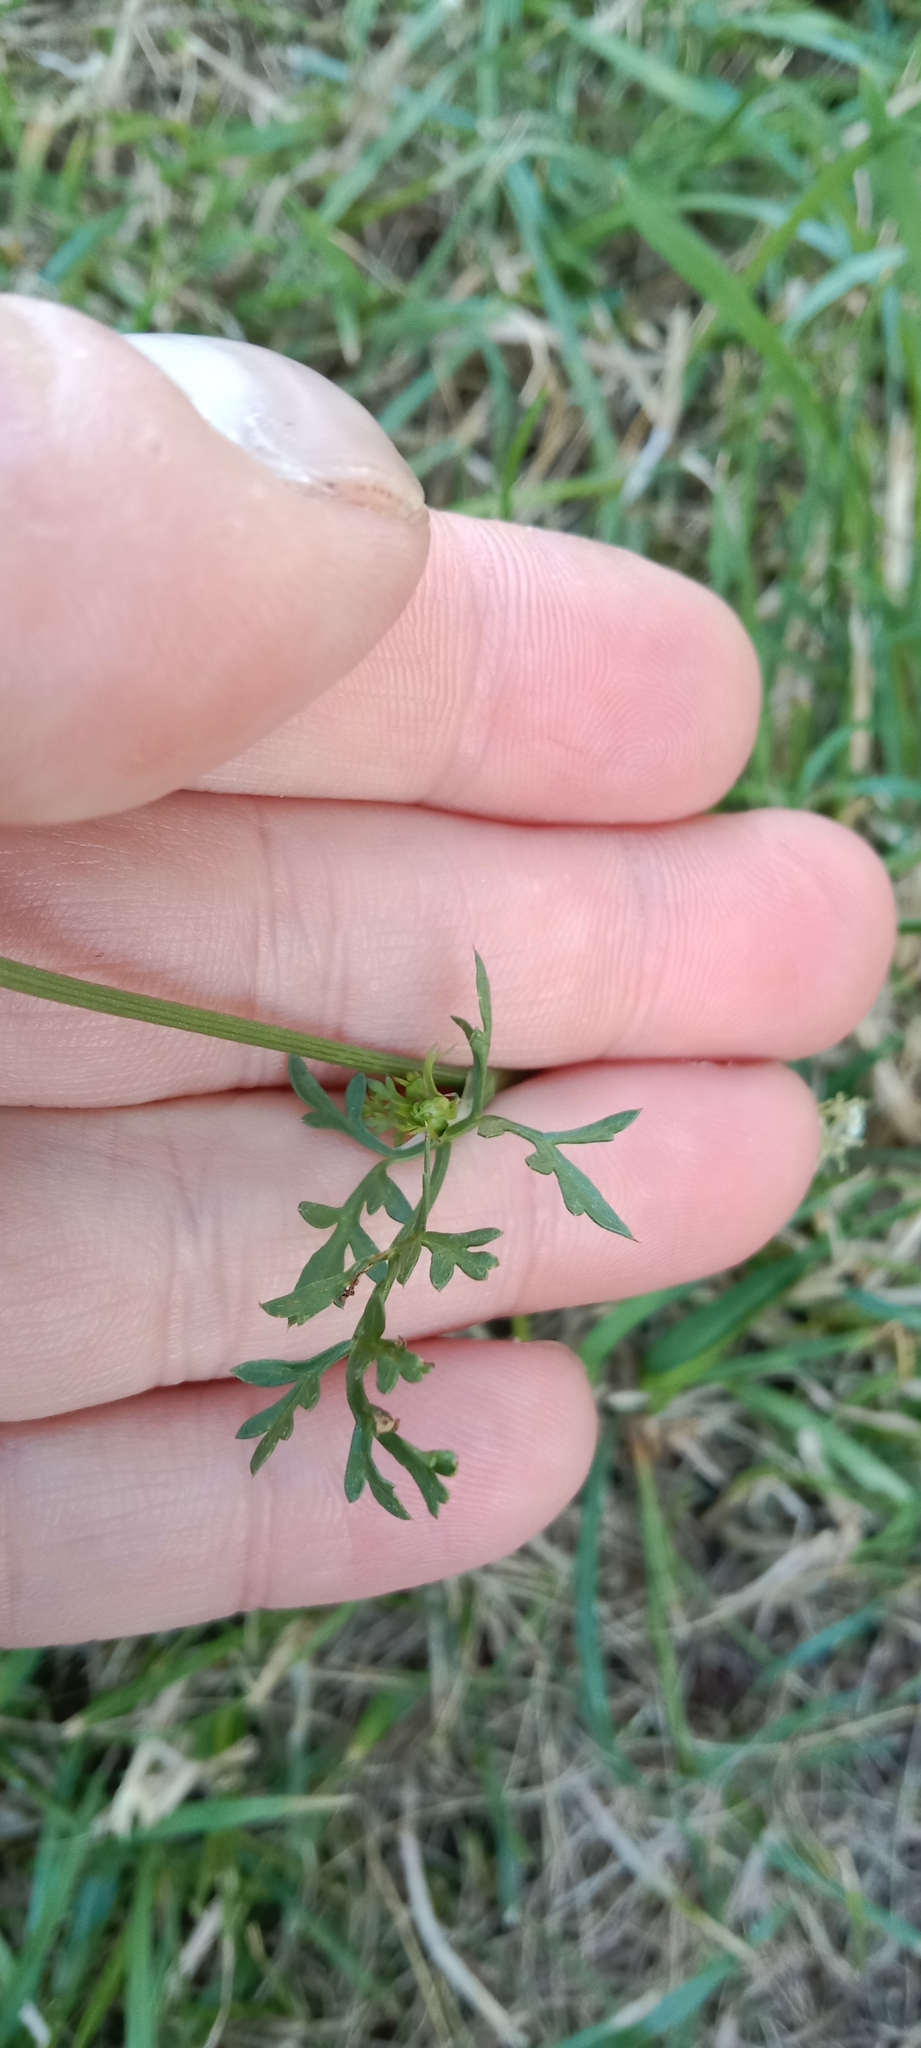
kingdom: Plantae
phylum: Tracheophyta
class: Magnoliopsida
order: Apiales
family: Apiaceae
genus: Daucus
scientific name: Daucus carota
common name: Wild carrot
